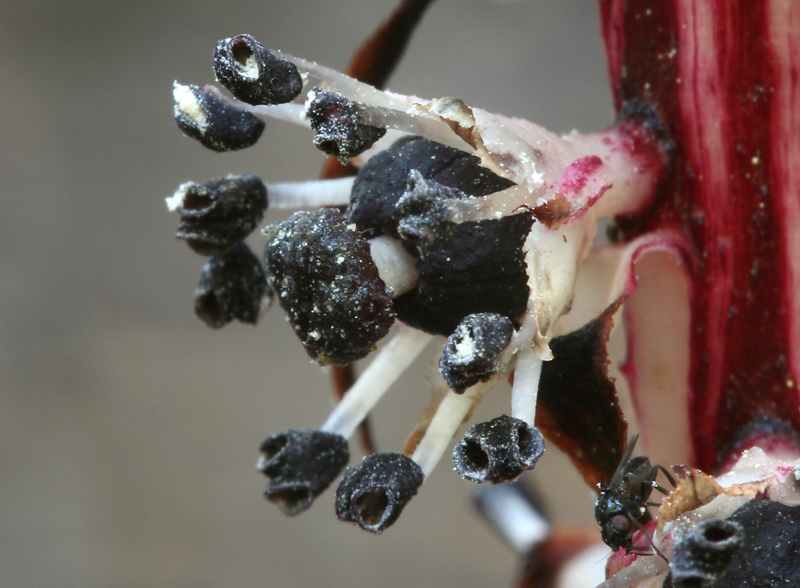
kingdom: Plantae
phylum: Tracheophyta
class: Magnoliopsida
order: Ericales
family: Ericaceae
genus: Allotropa
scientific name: Allotropa virgata
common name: Candy-striped allotropa
